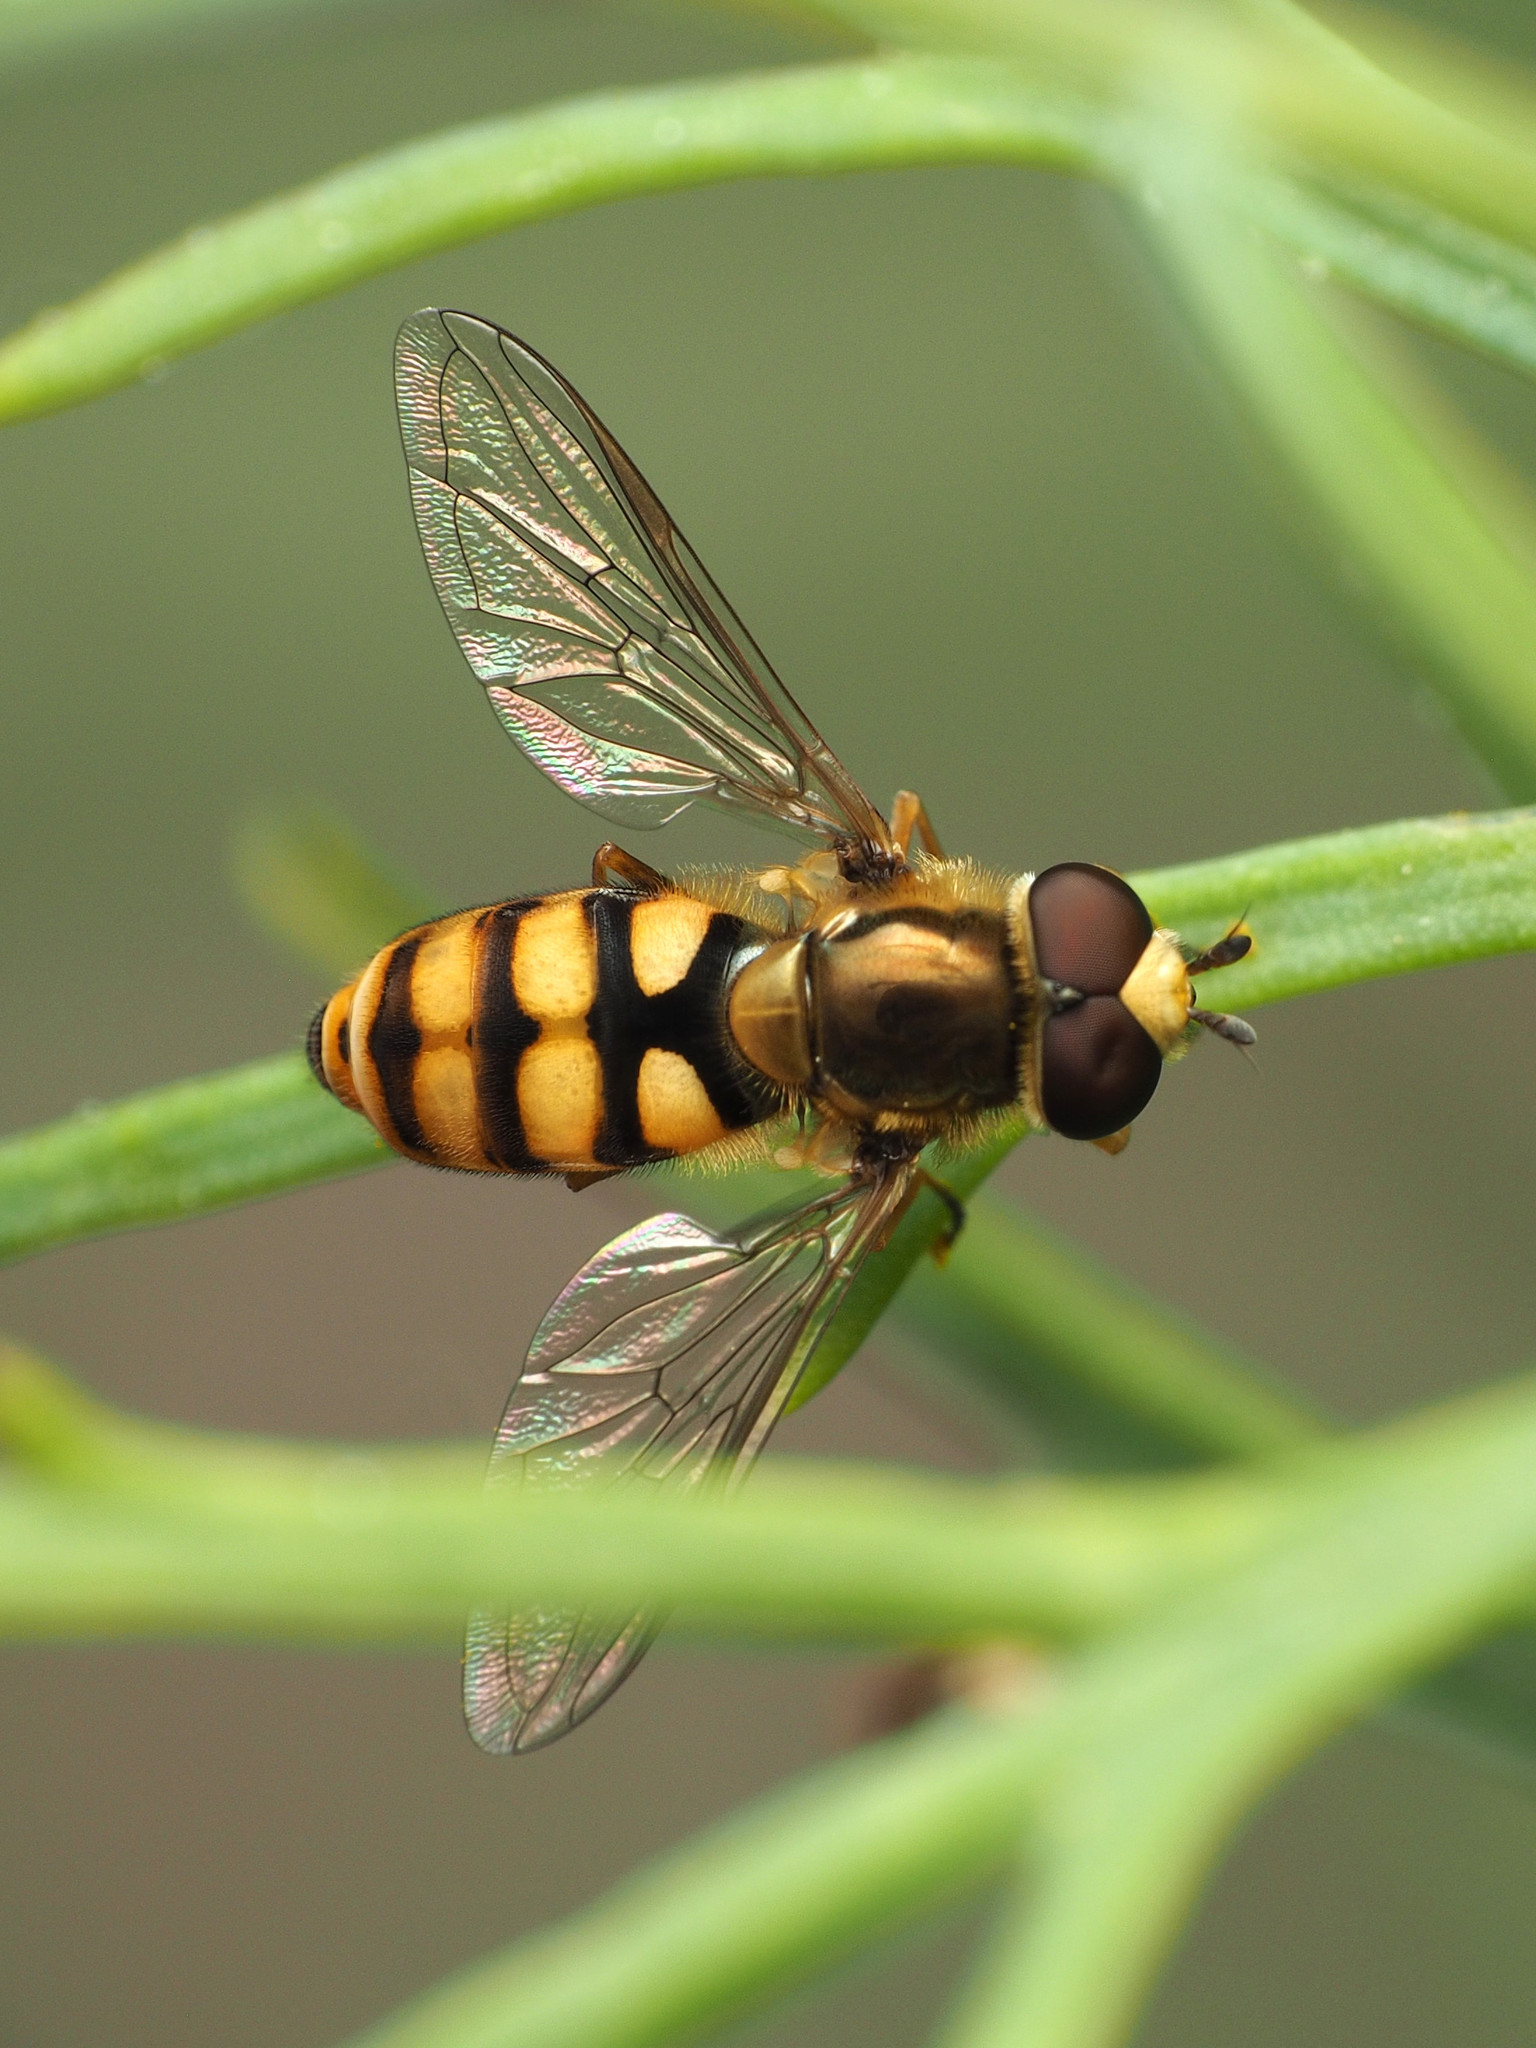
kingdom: Animalia
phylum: Arthropoda
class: Insecta
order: Diptera
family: Syrphidae
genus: Eupeodes
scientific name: Eupeodes corollae
